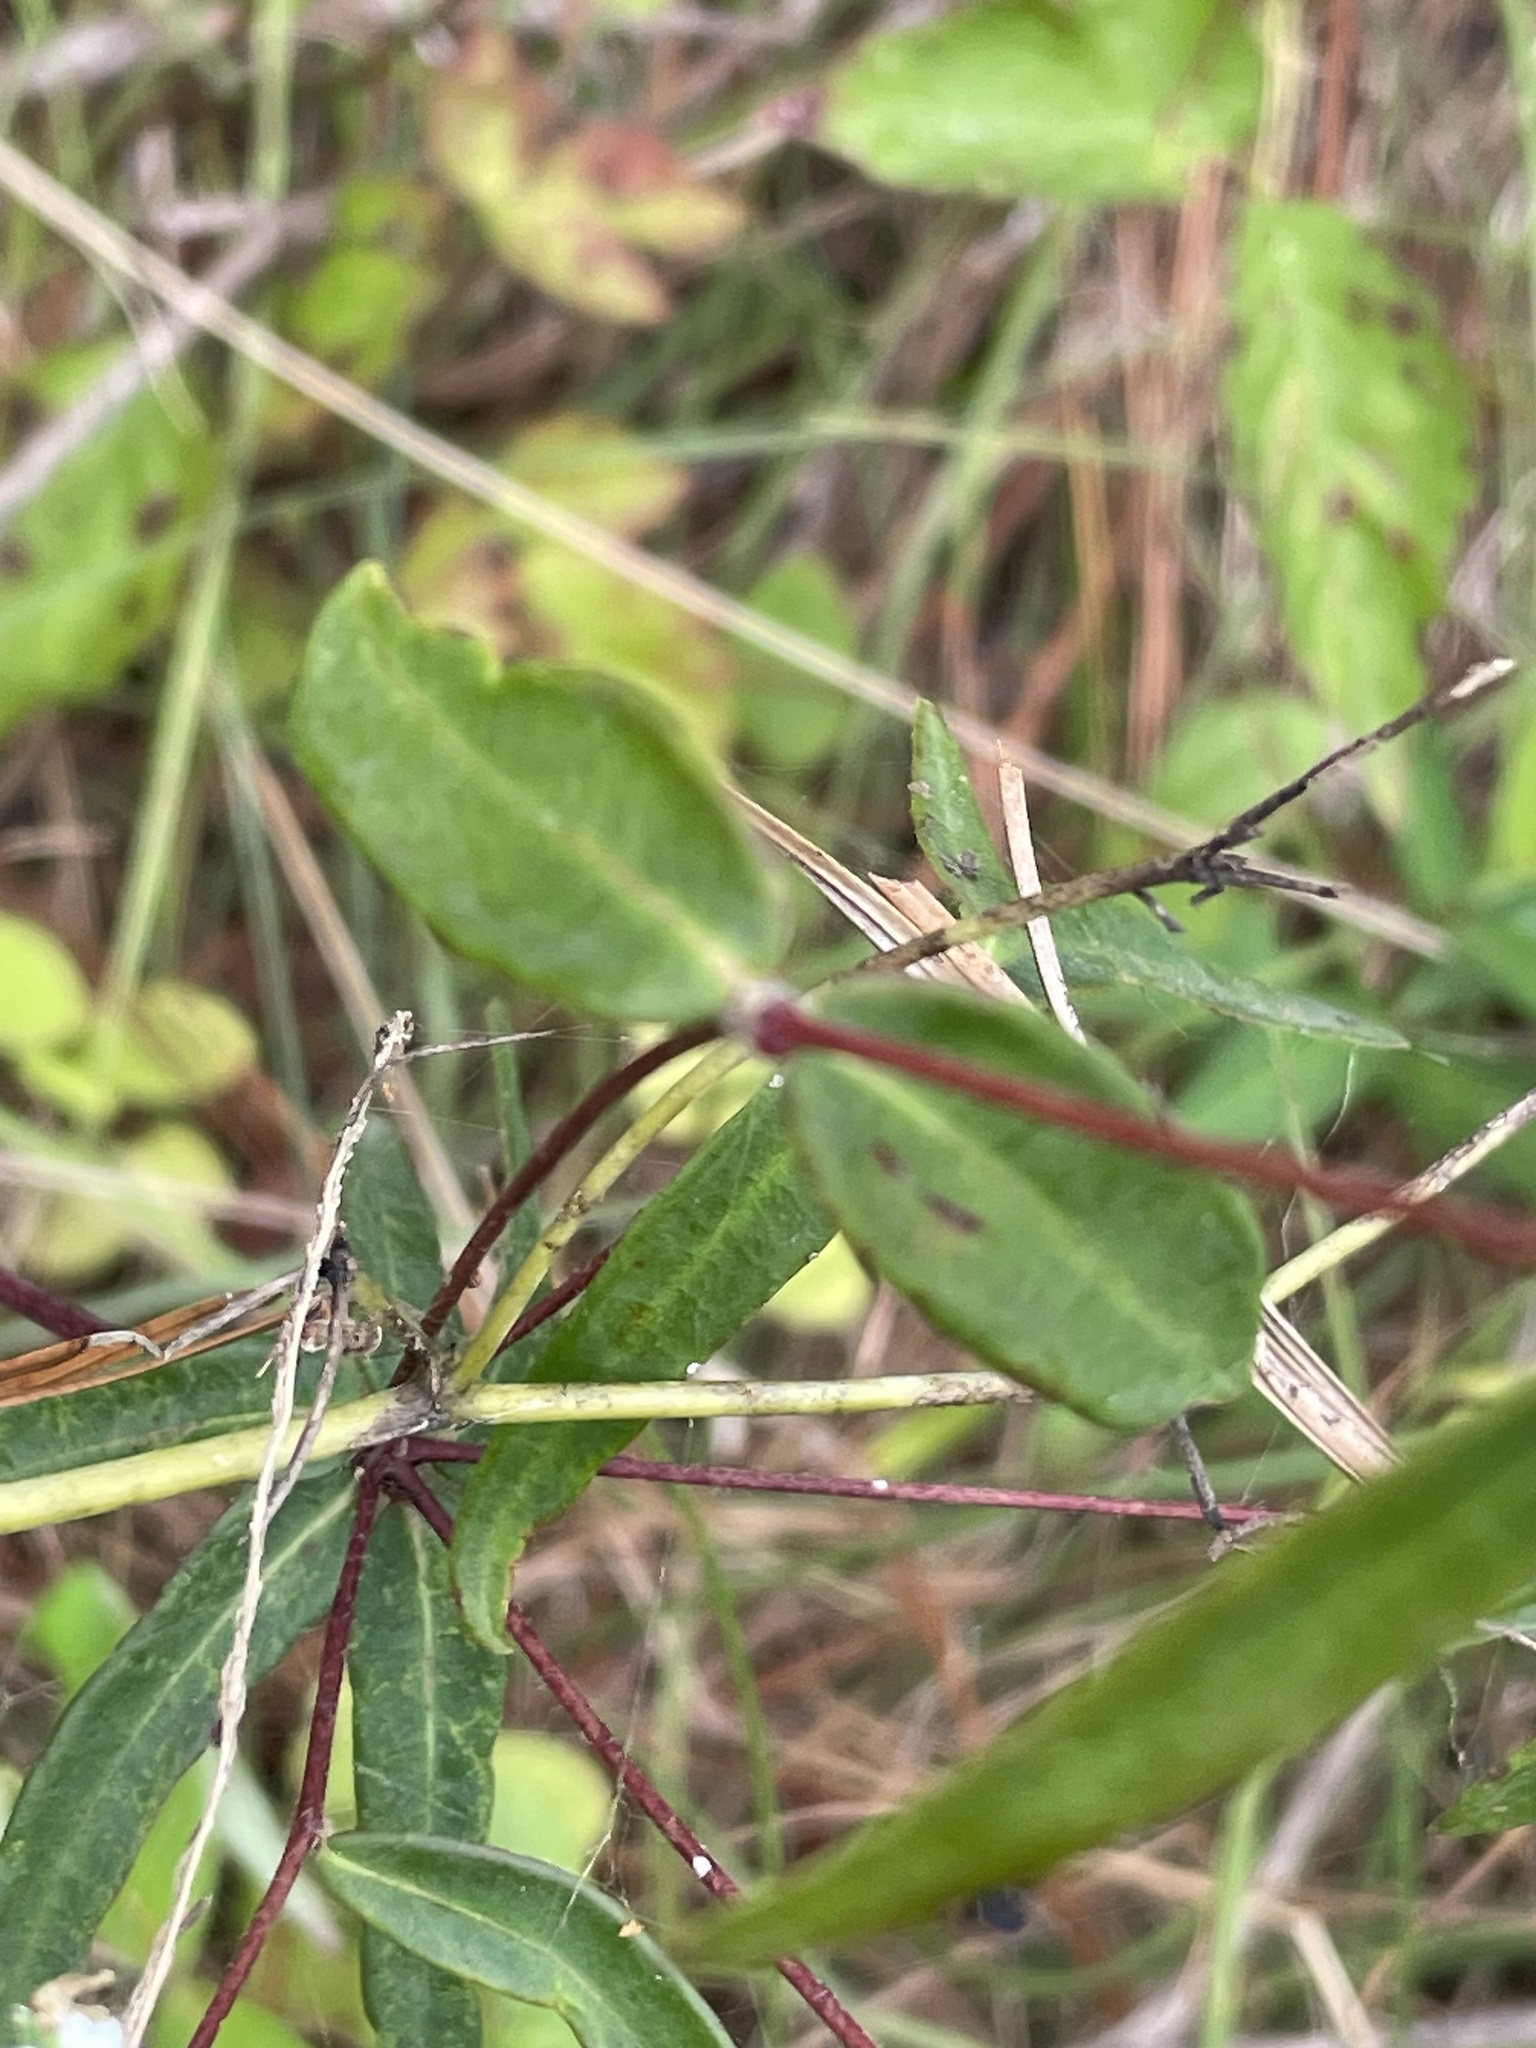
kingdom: Plantae
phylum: Tracheophyta
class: Magnoliopsida
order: Malpighiales
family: Euphorbiaceae
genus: Euphorbia
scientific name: Euphorbia corollata
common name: Flowering spurge
